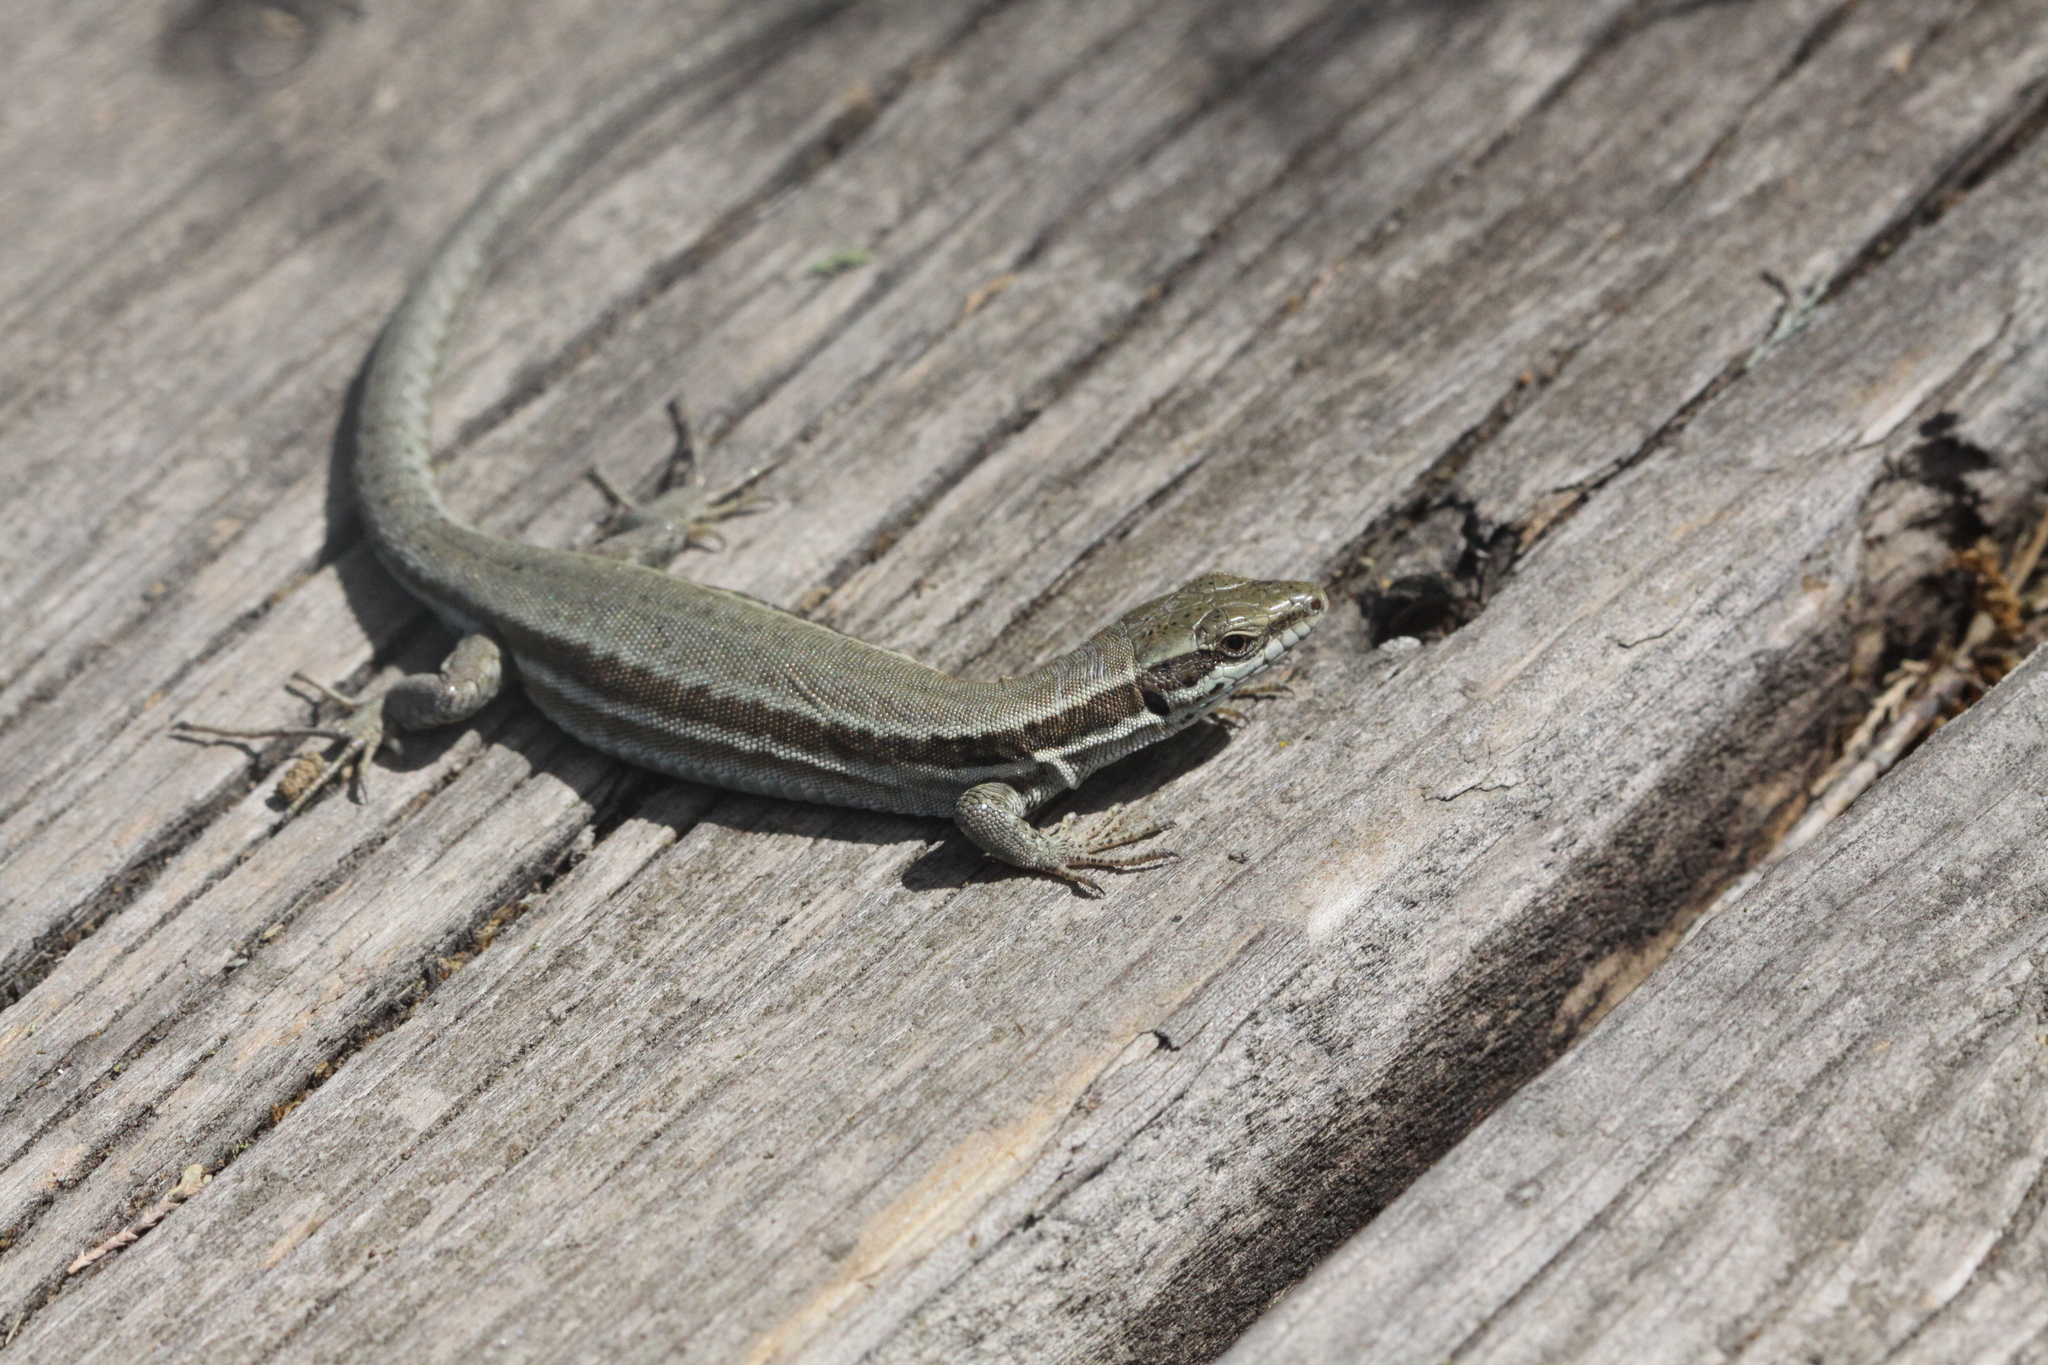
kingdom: Animalia
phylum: Chordata
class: Squamata
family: Lacertidae
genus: Podarcis
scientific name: Podarcis muralis
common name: Common wall lizard
